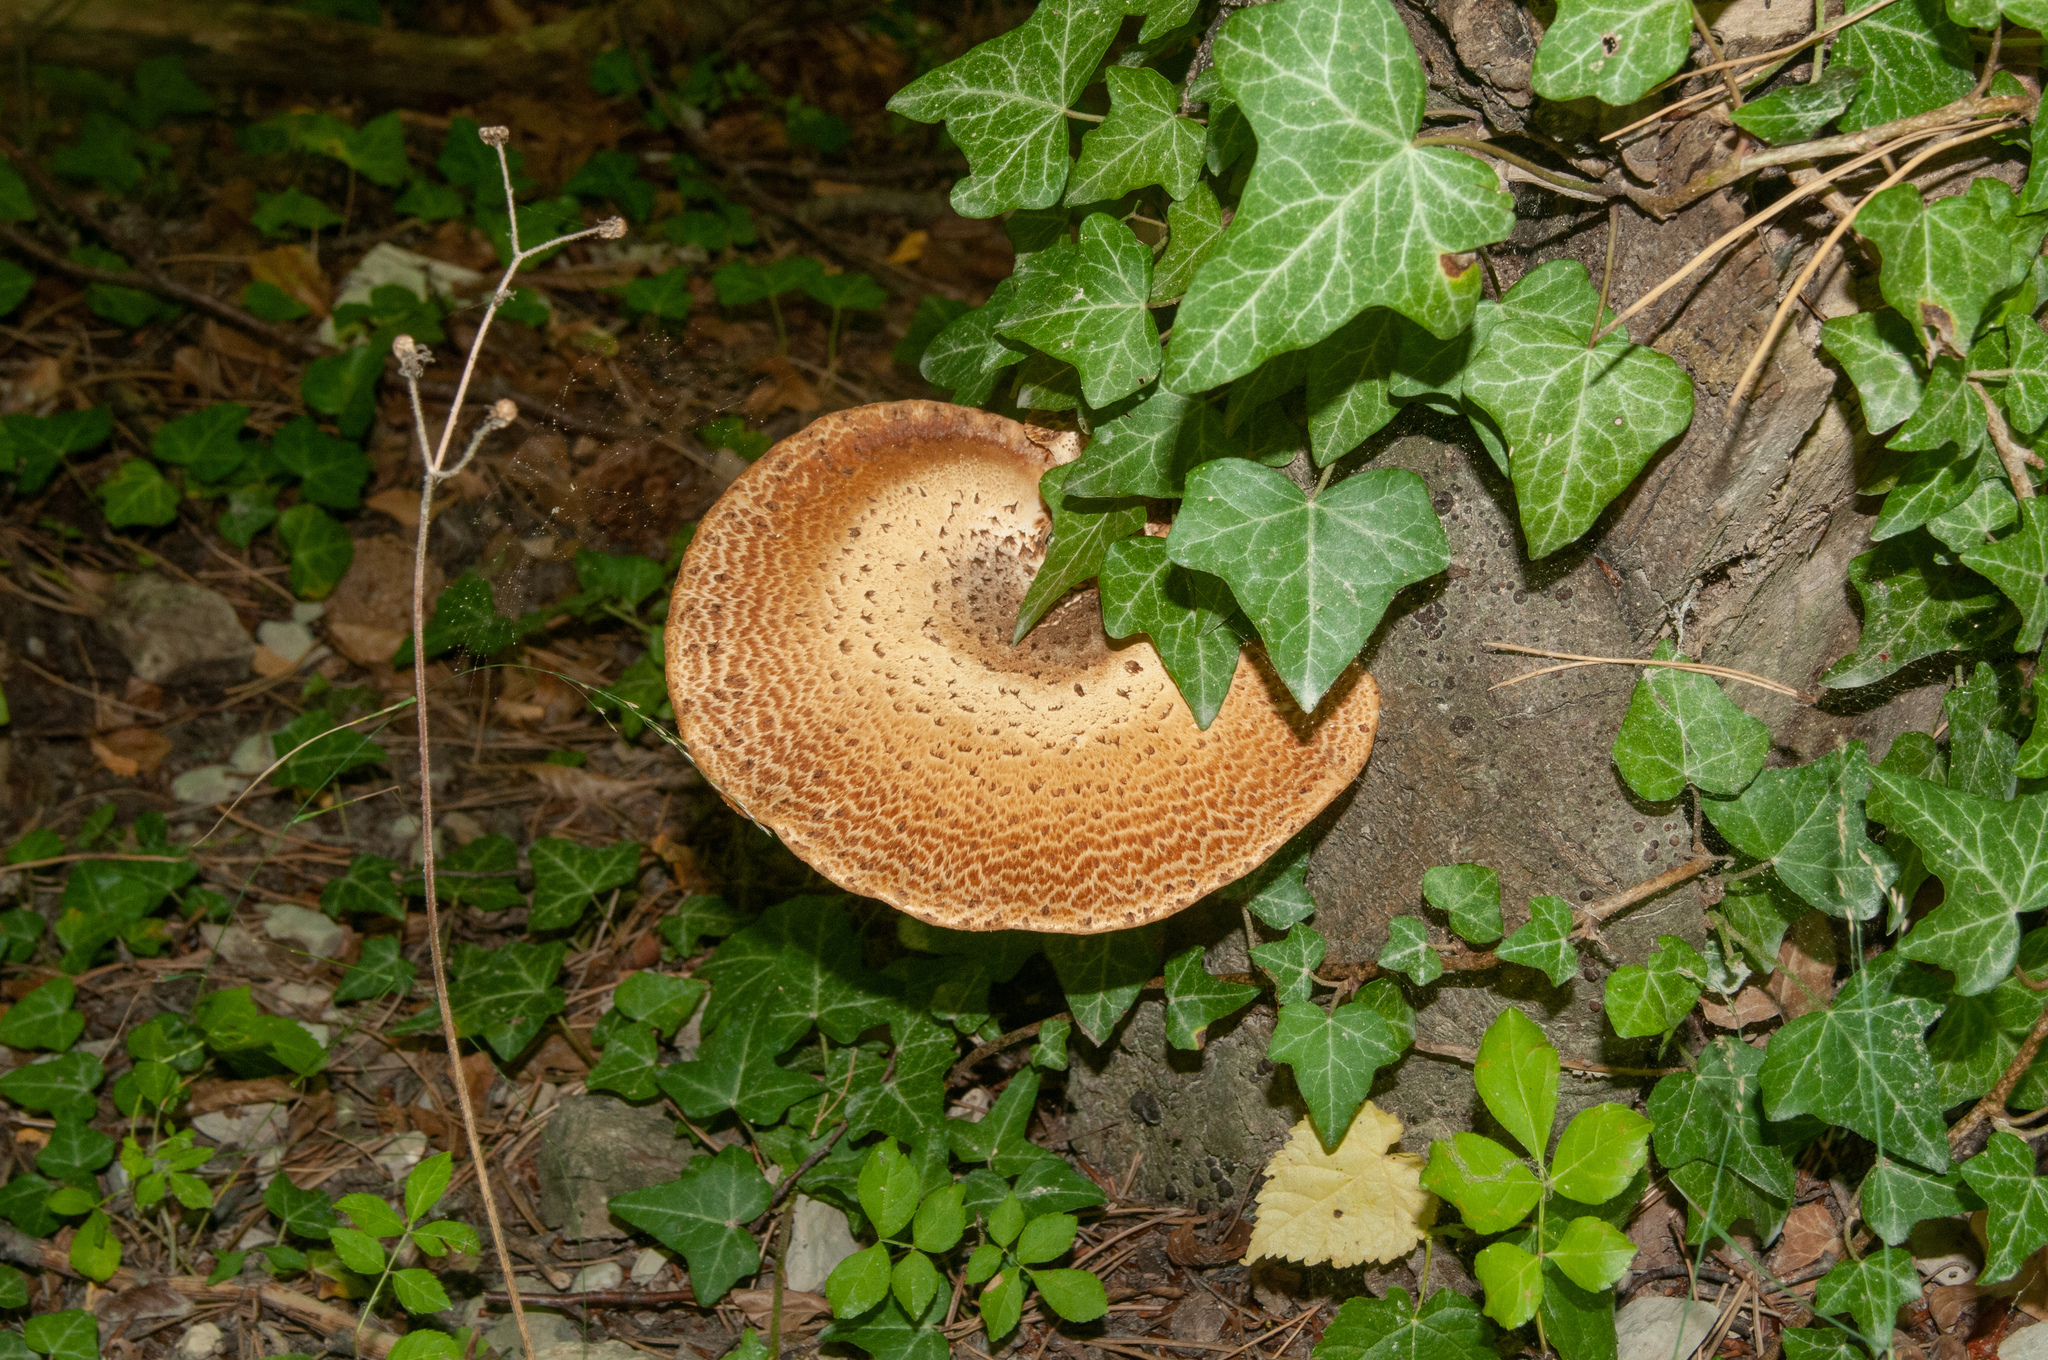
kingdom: Fungi
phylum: Basidiomycota
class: Agaricomycetes
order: Polyporales
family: Polyporaceae
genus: Cerioporus
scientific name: Cerioporus squamosus
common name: Dryad's saddle
